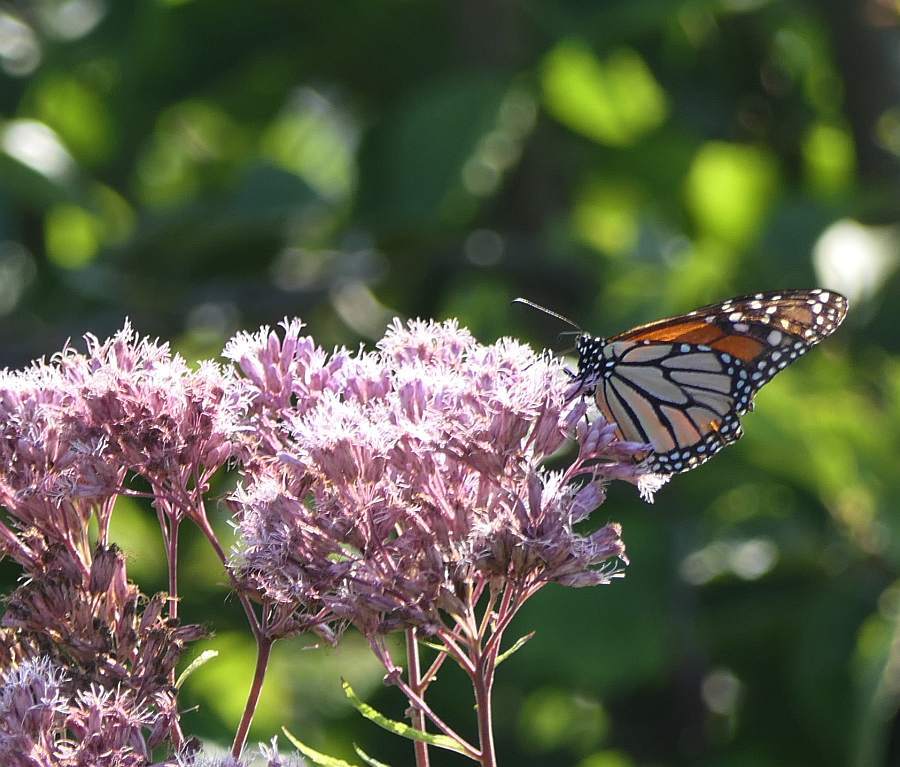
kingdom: Animalia
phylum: Arthropoda
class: Insecta
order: Lepidoptera
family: Nymphalidae
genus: Danaus
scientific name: Danaus plexippus
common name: Monarch
